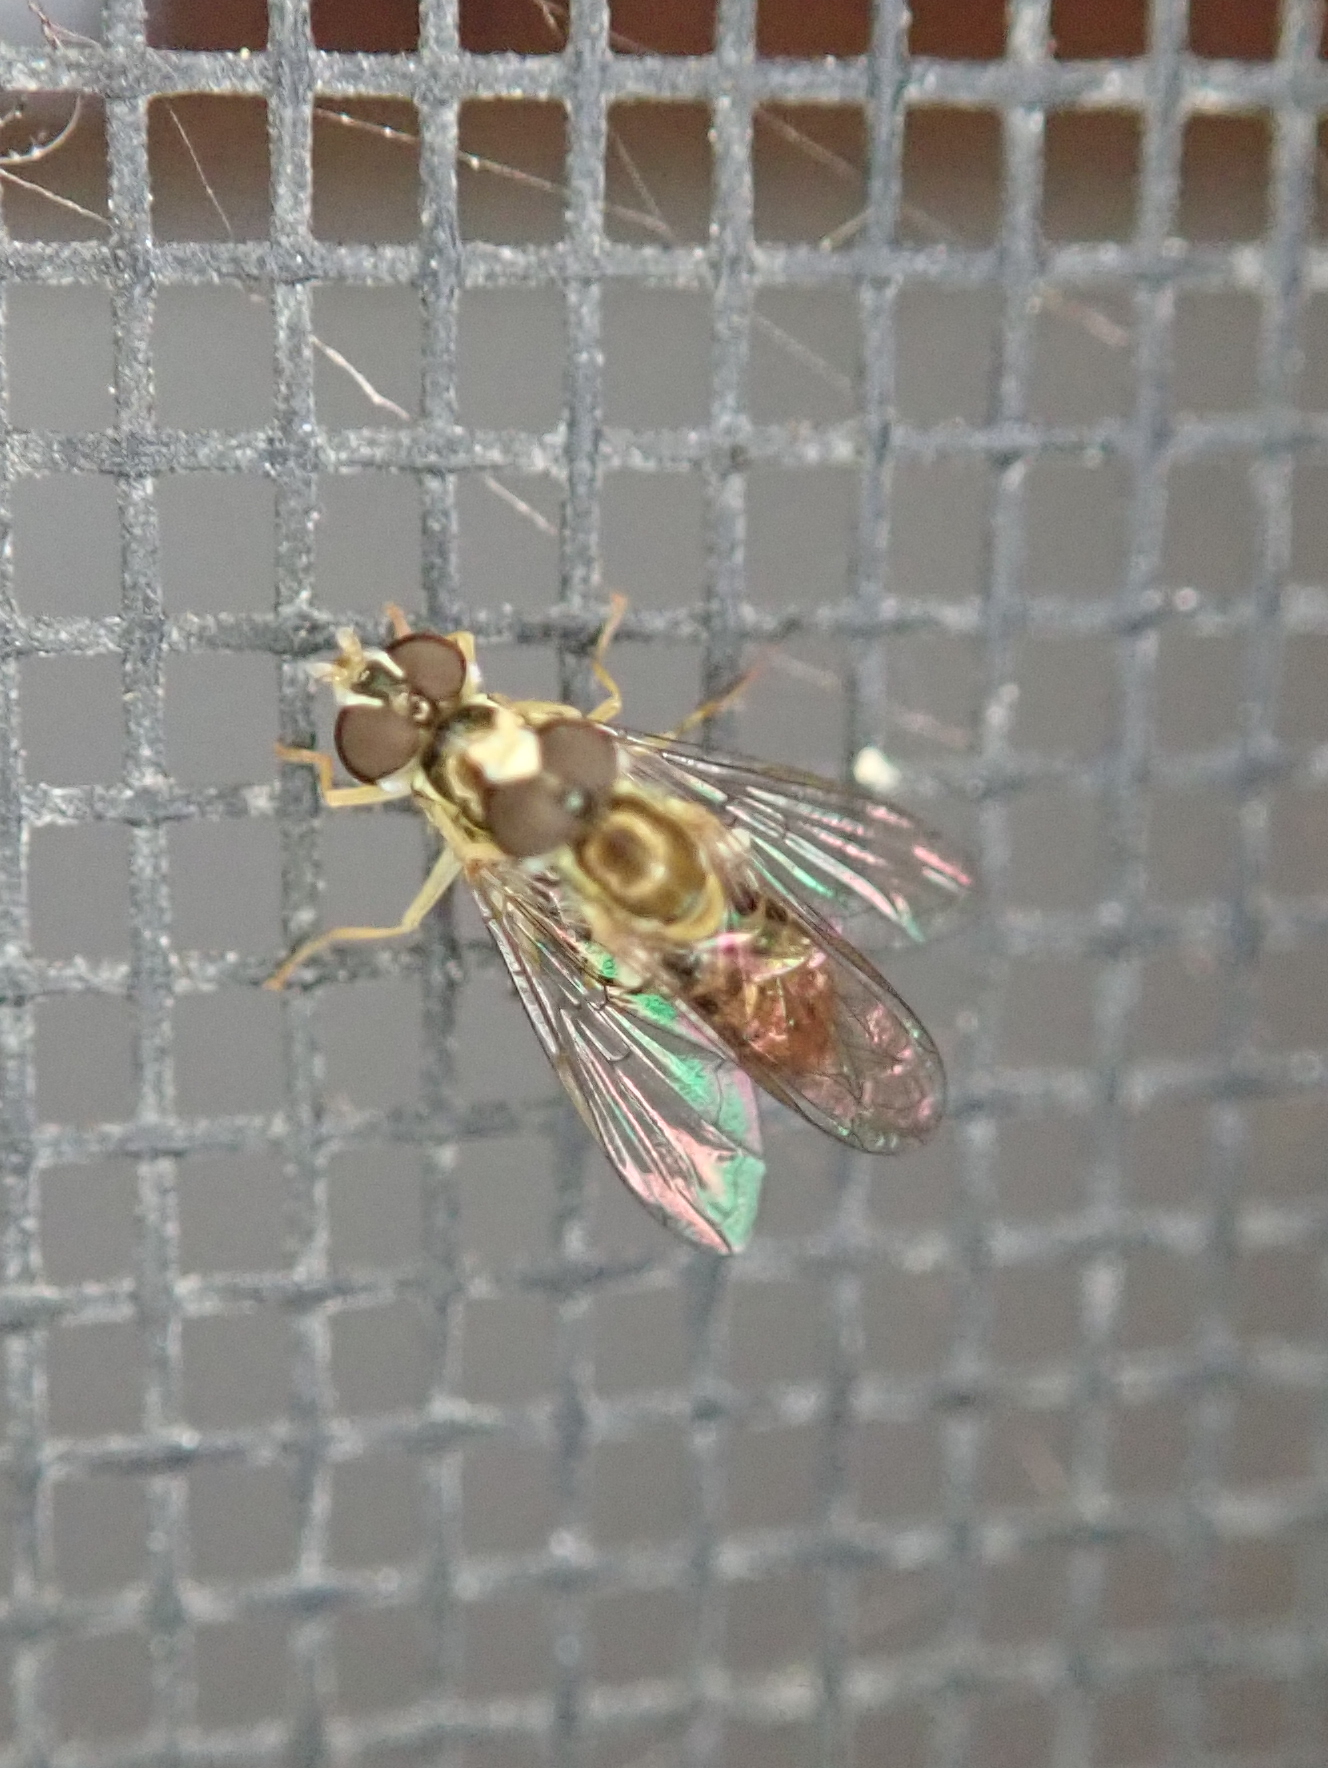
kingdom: Animalia
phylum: Arthropoda
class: Insecta
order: Diptera
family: Syrphidae
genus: Toxomerus
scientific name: Toxomerus marginatus
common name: Syrphid fly
